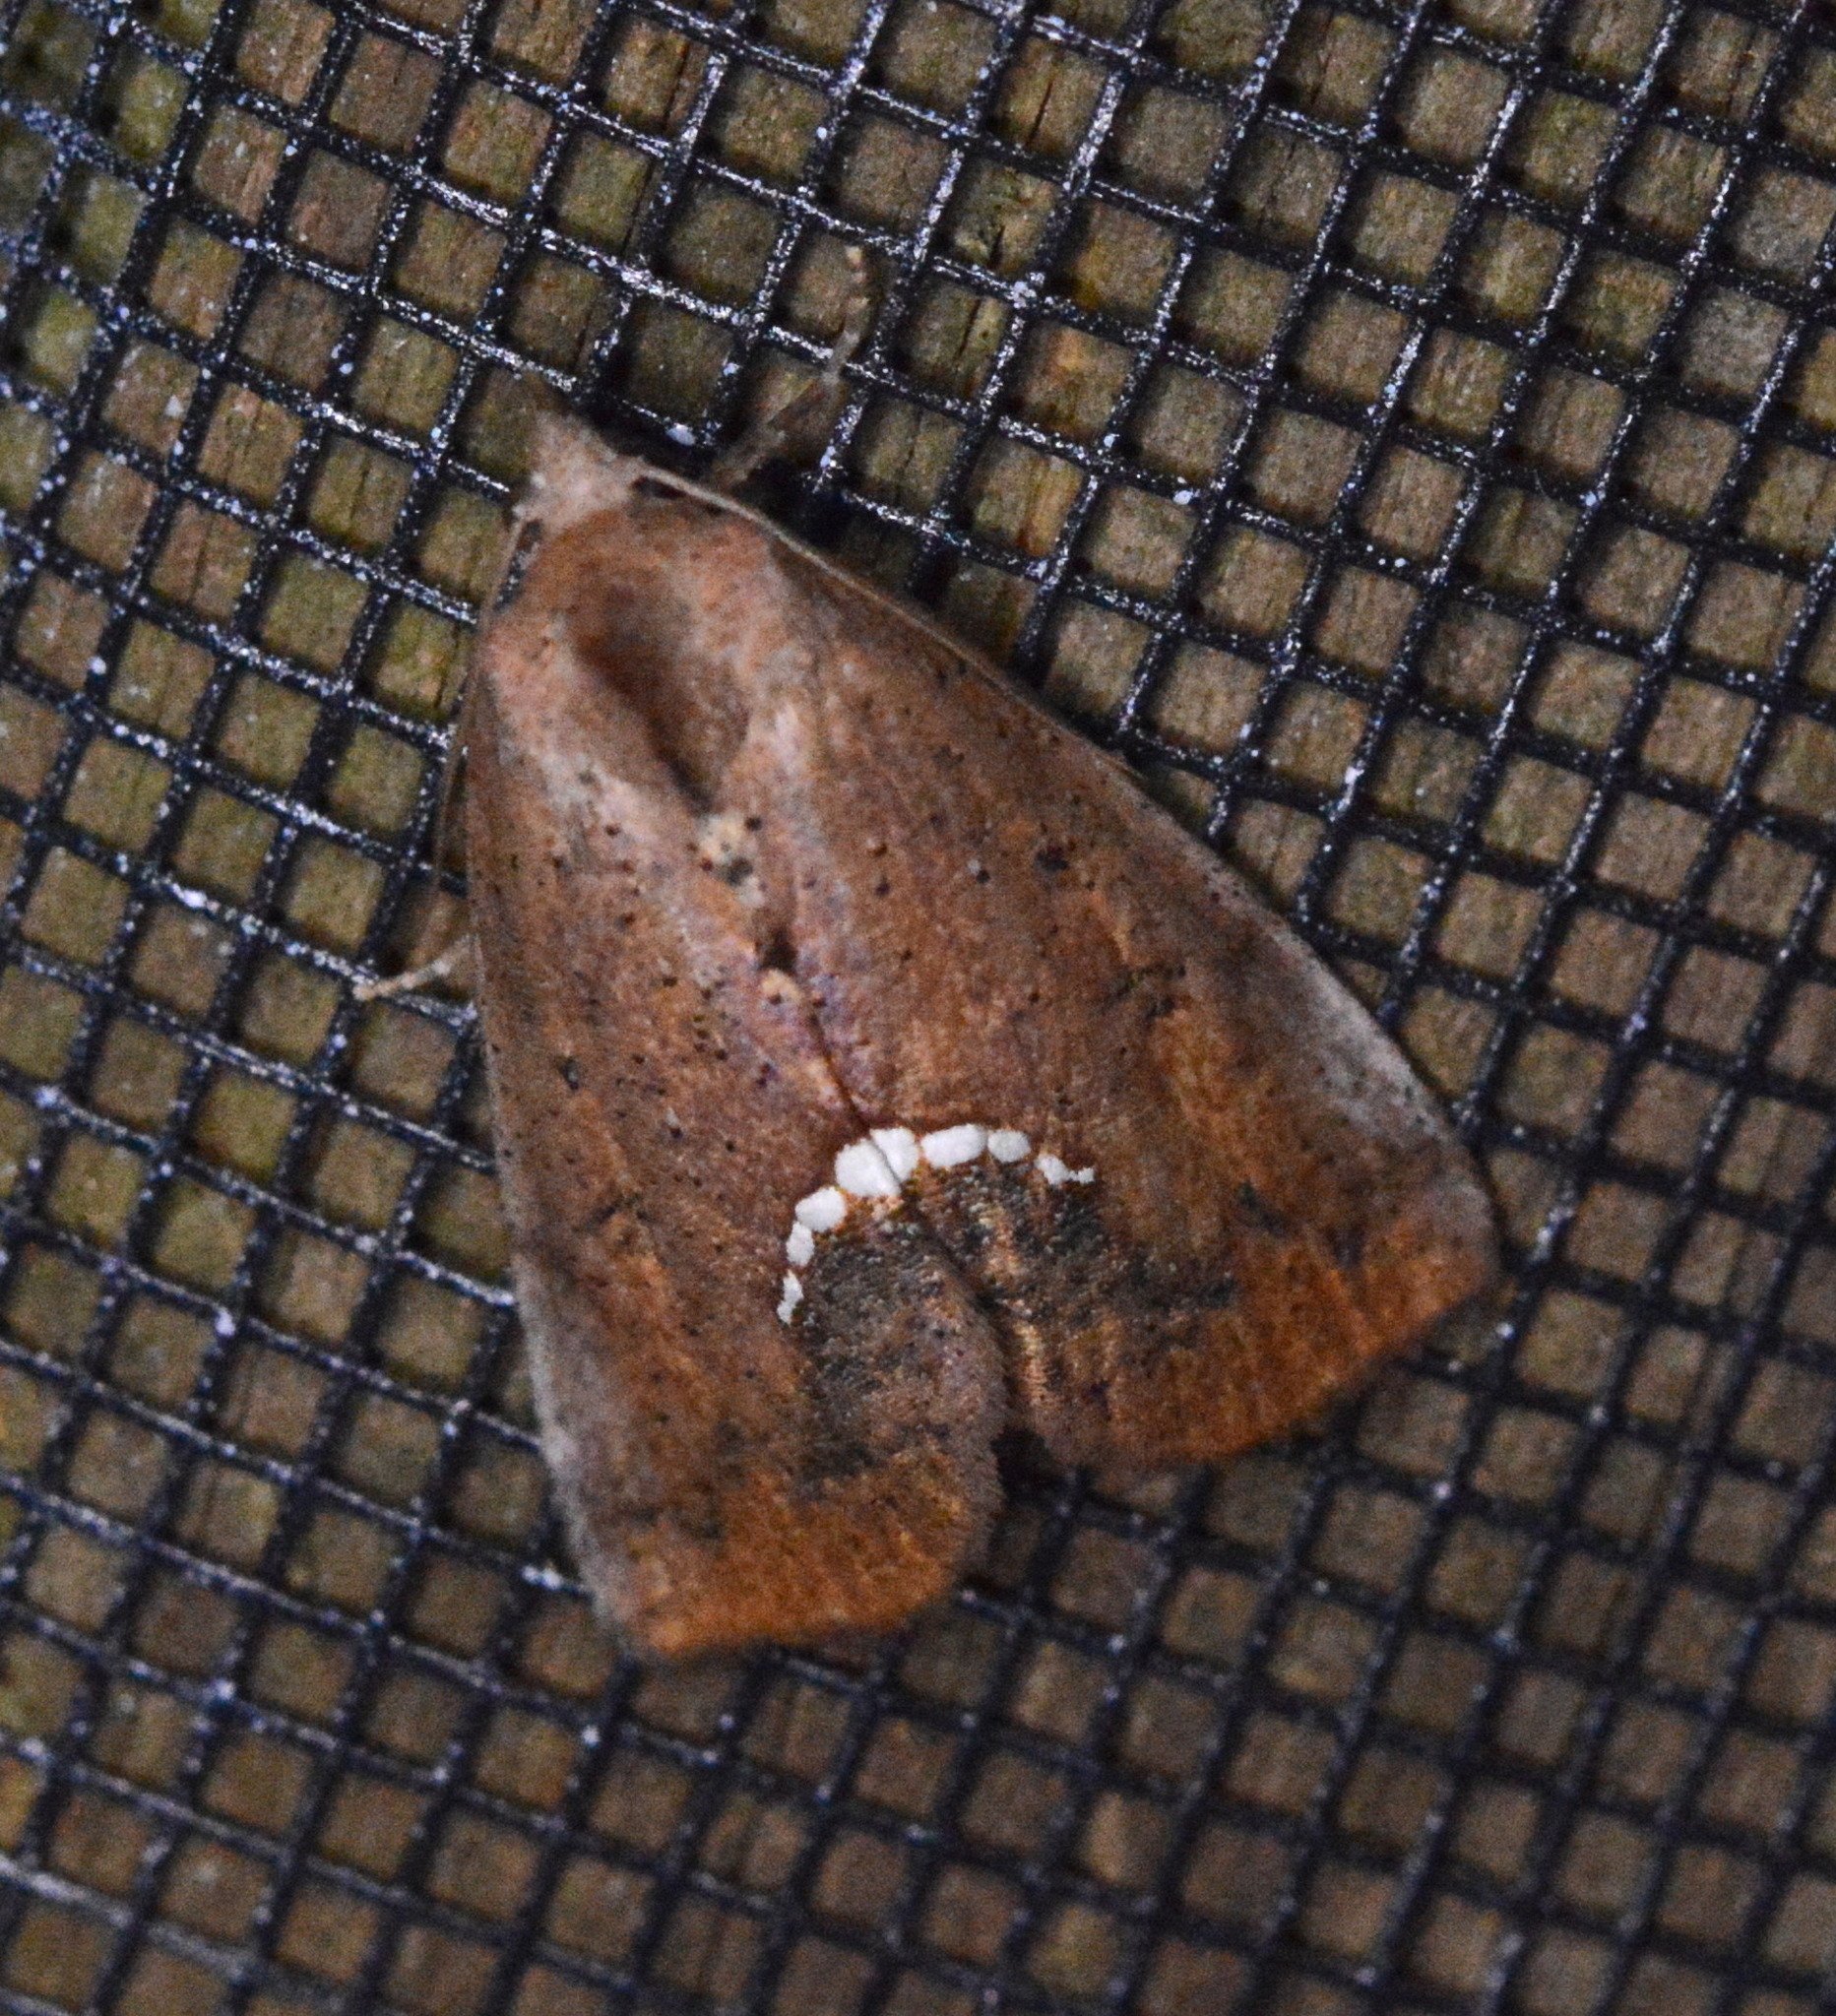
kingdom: Animalia
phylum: Arthropoda
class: Insecta
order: Lepidoptera
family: Erebidae
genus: Hypsoropha
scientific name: Hypsoropha hormos
